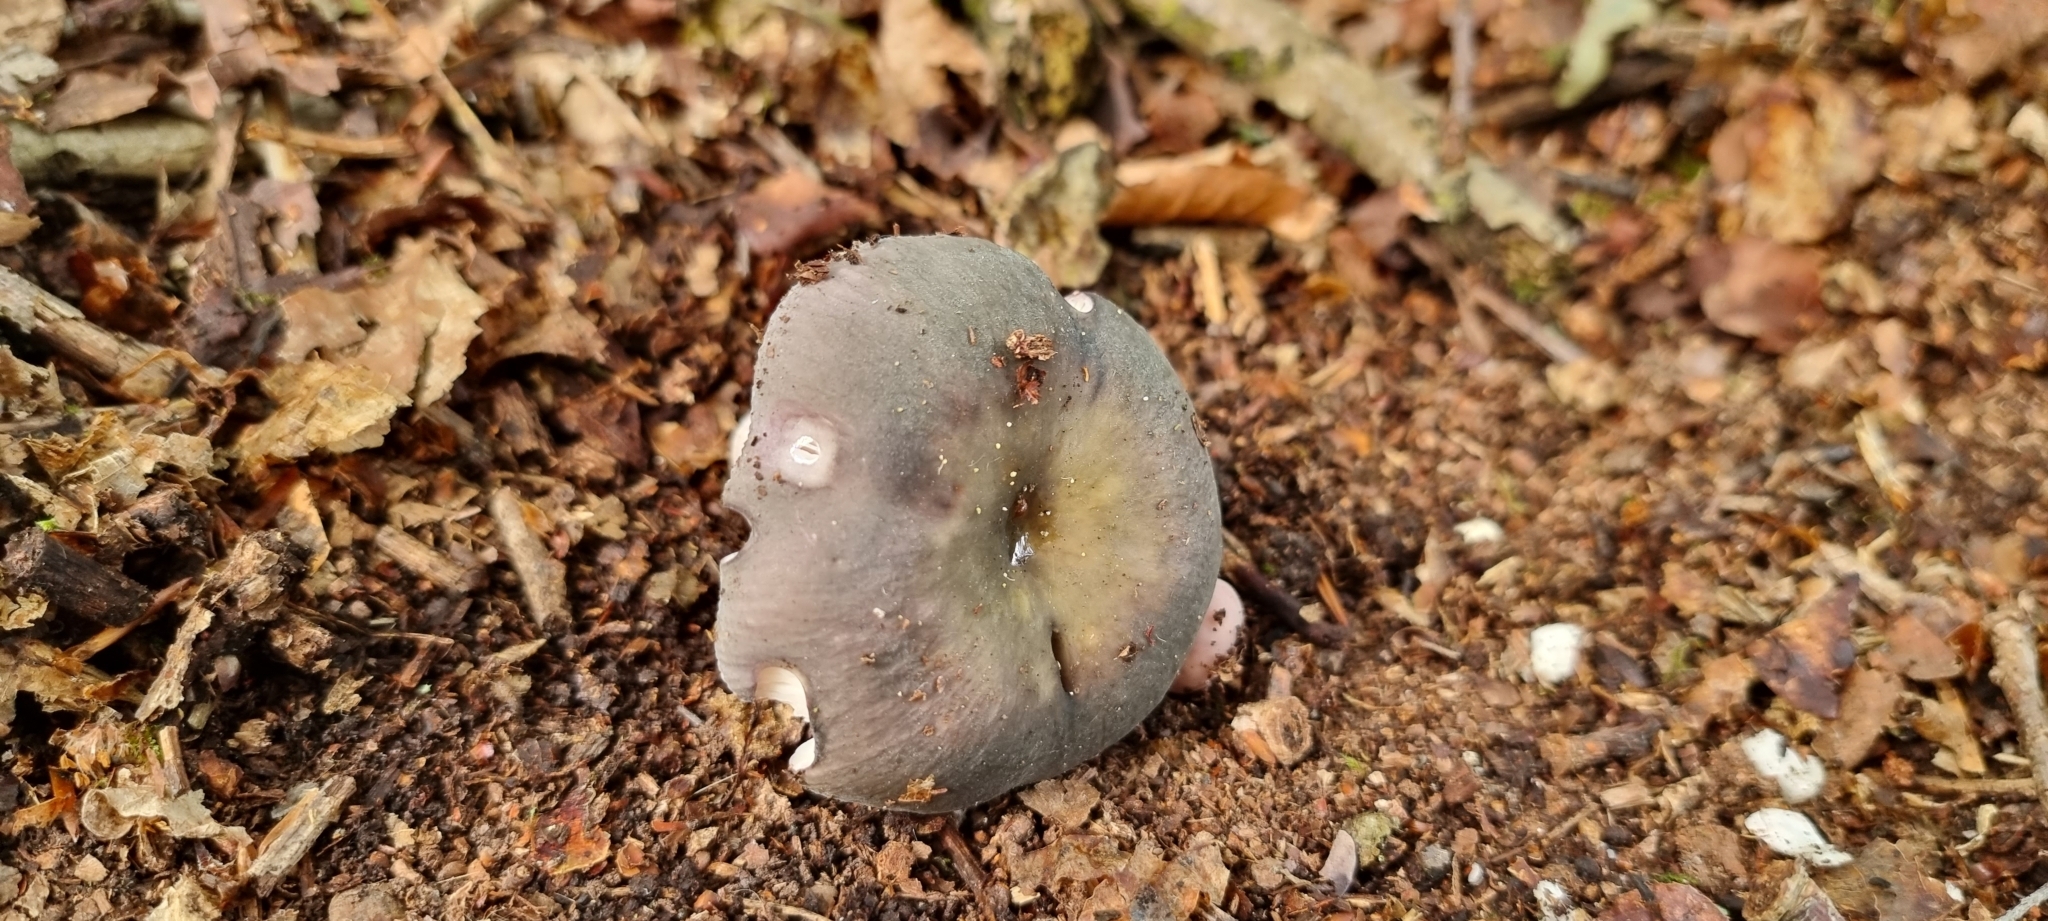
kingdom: Fungi
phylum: Basidiomycota
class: Agaricomycetes
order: Russulales
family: Russulaceae
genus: Russula
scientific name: Russula cyanoxantha
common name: Charcoal burner
